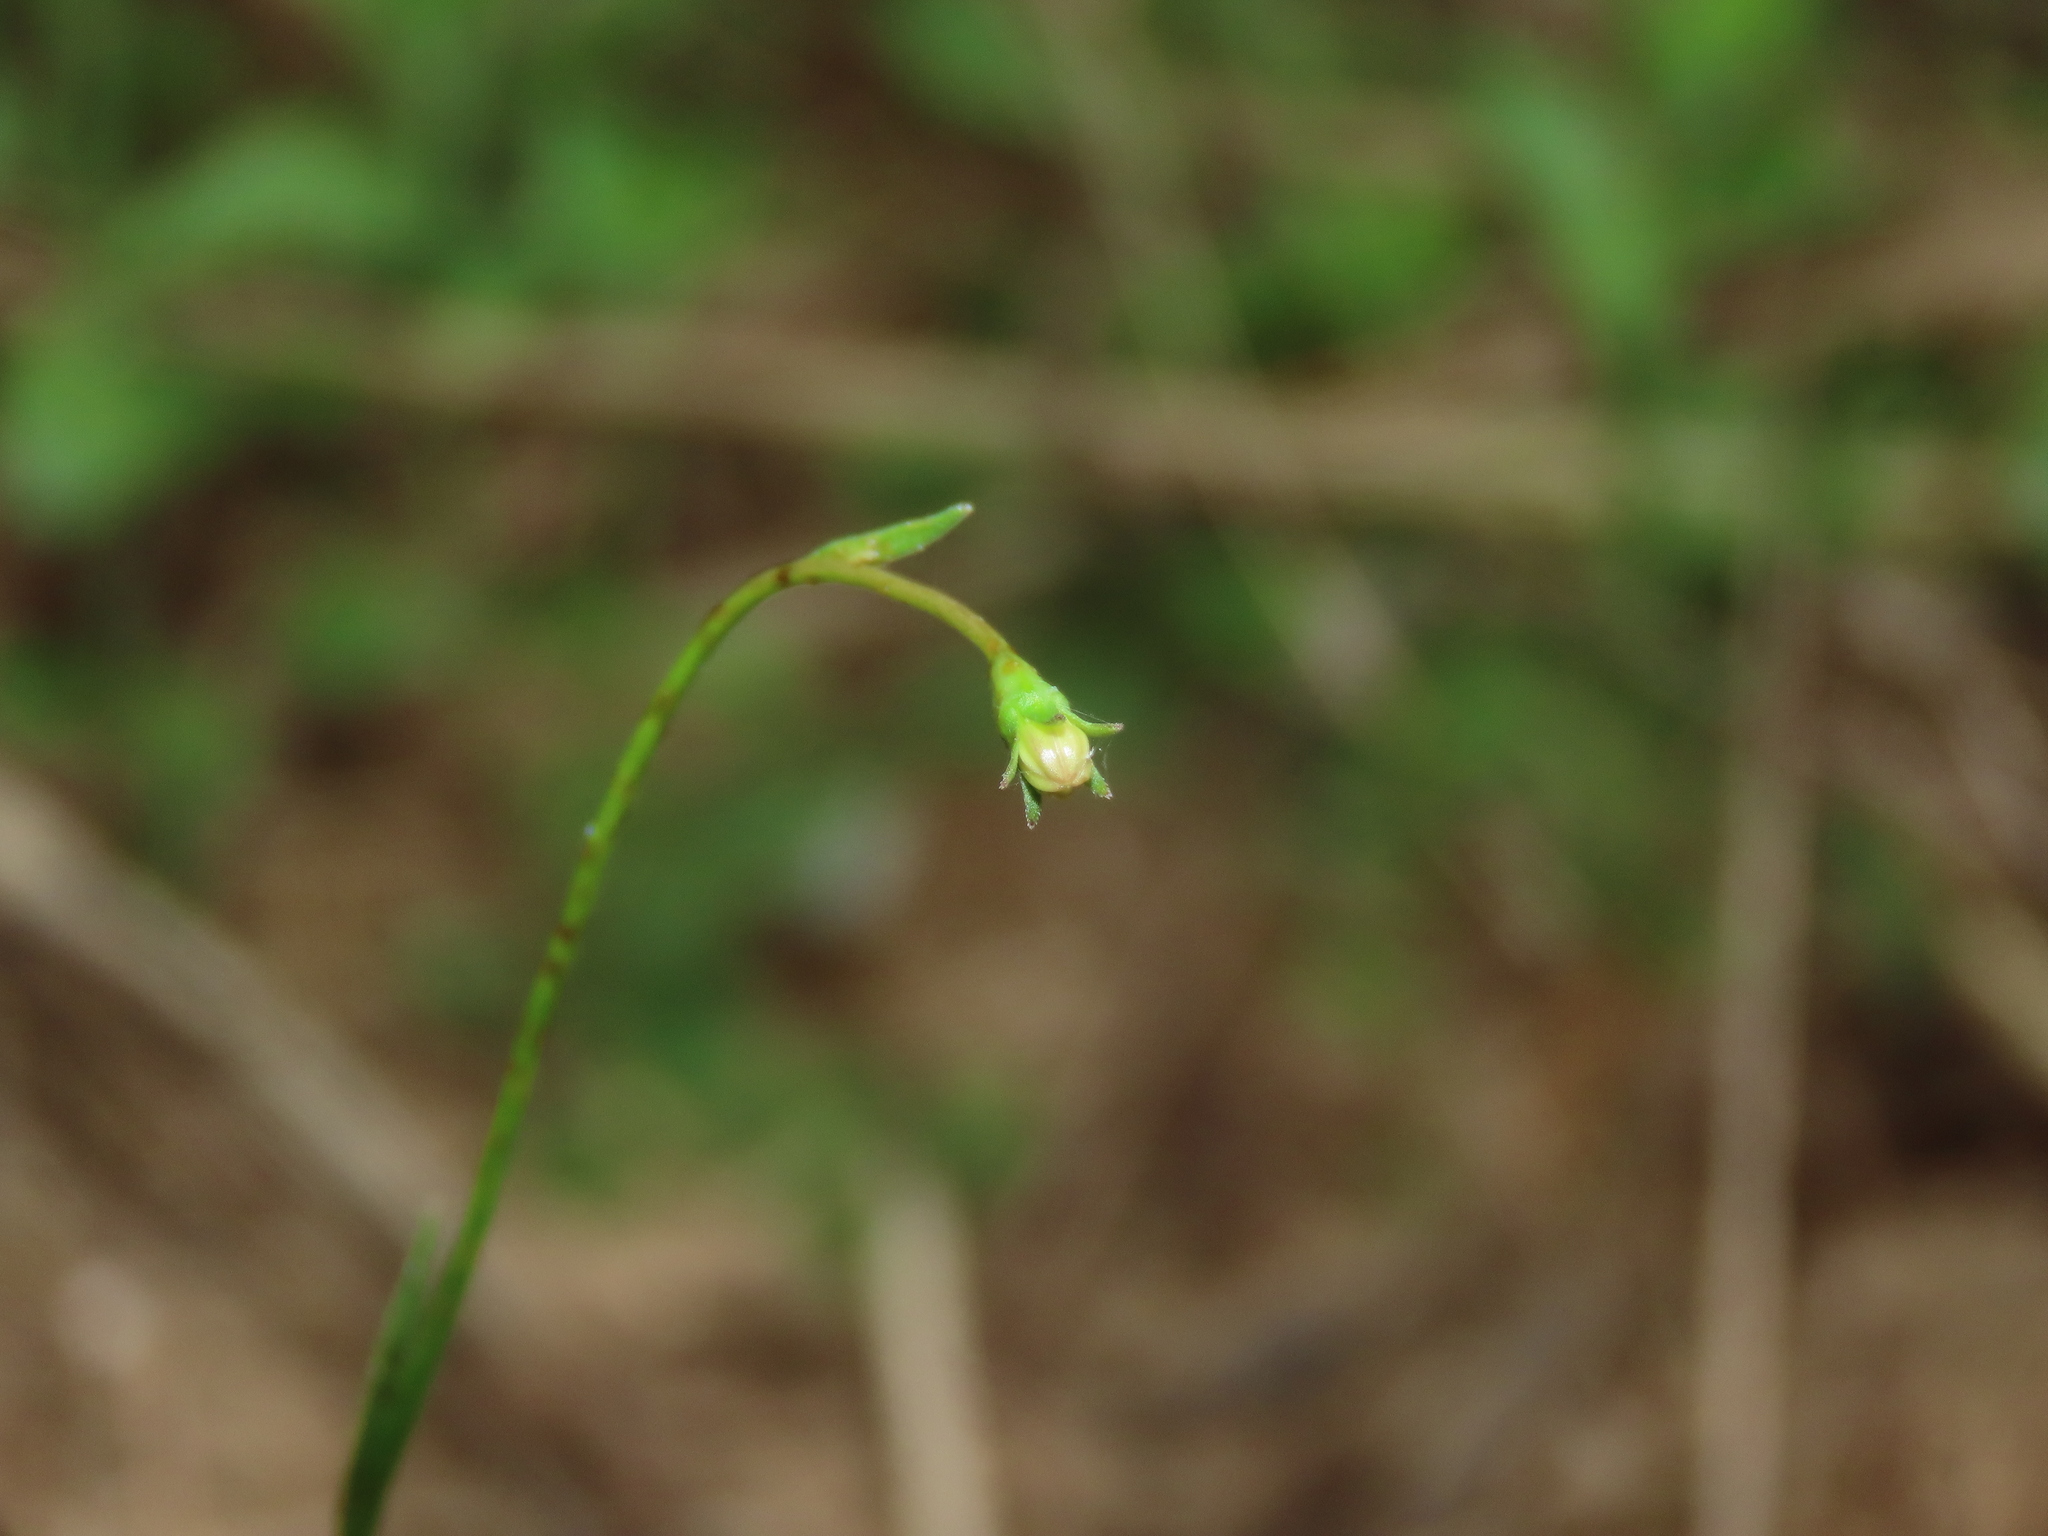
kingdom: Plantae
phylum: Tracheophyta
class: Magnoliopsida
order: Asterales
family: Campanulaceae
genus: Wahlenbergia
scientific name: Wahlenbergia marginata
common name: Southern rockbell
